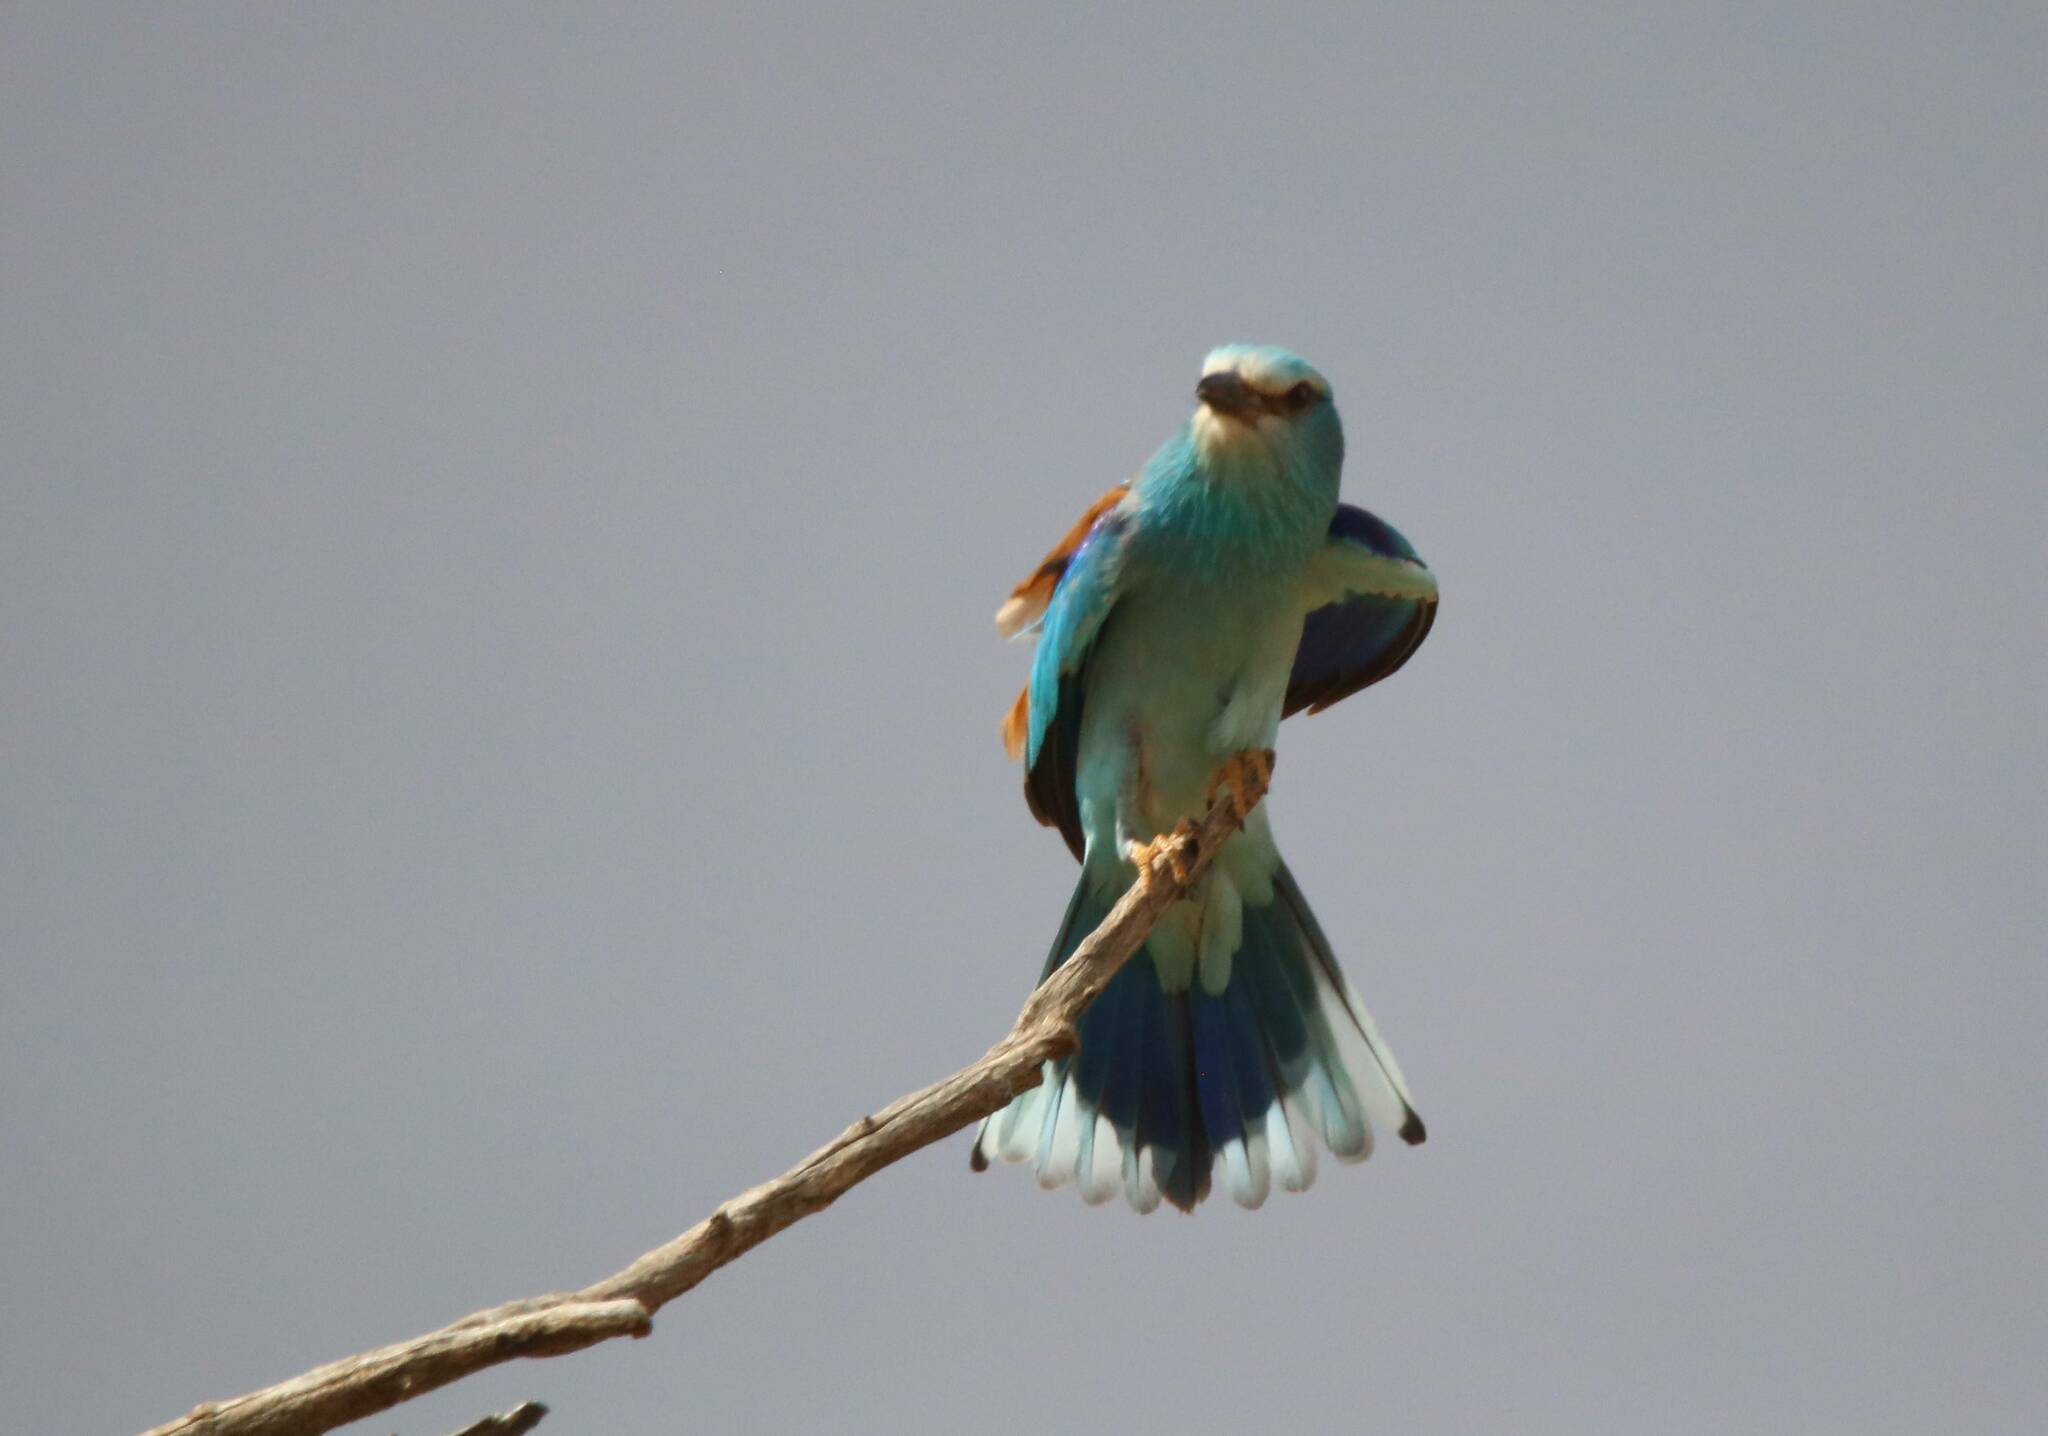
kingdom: Animalia
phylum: Chordata
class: Aves
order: Coraciiformes
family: Coraciidae
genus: Coracias
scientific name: Coracias garrulus
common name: European roller
